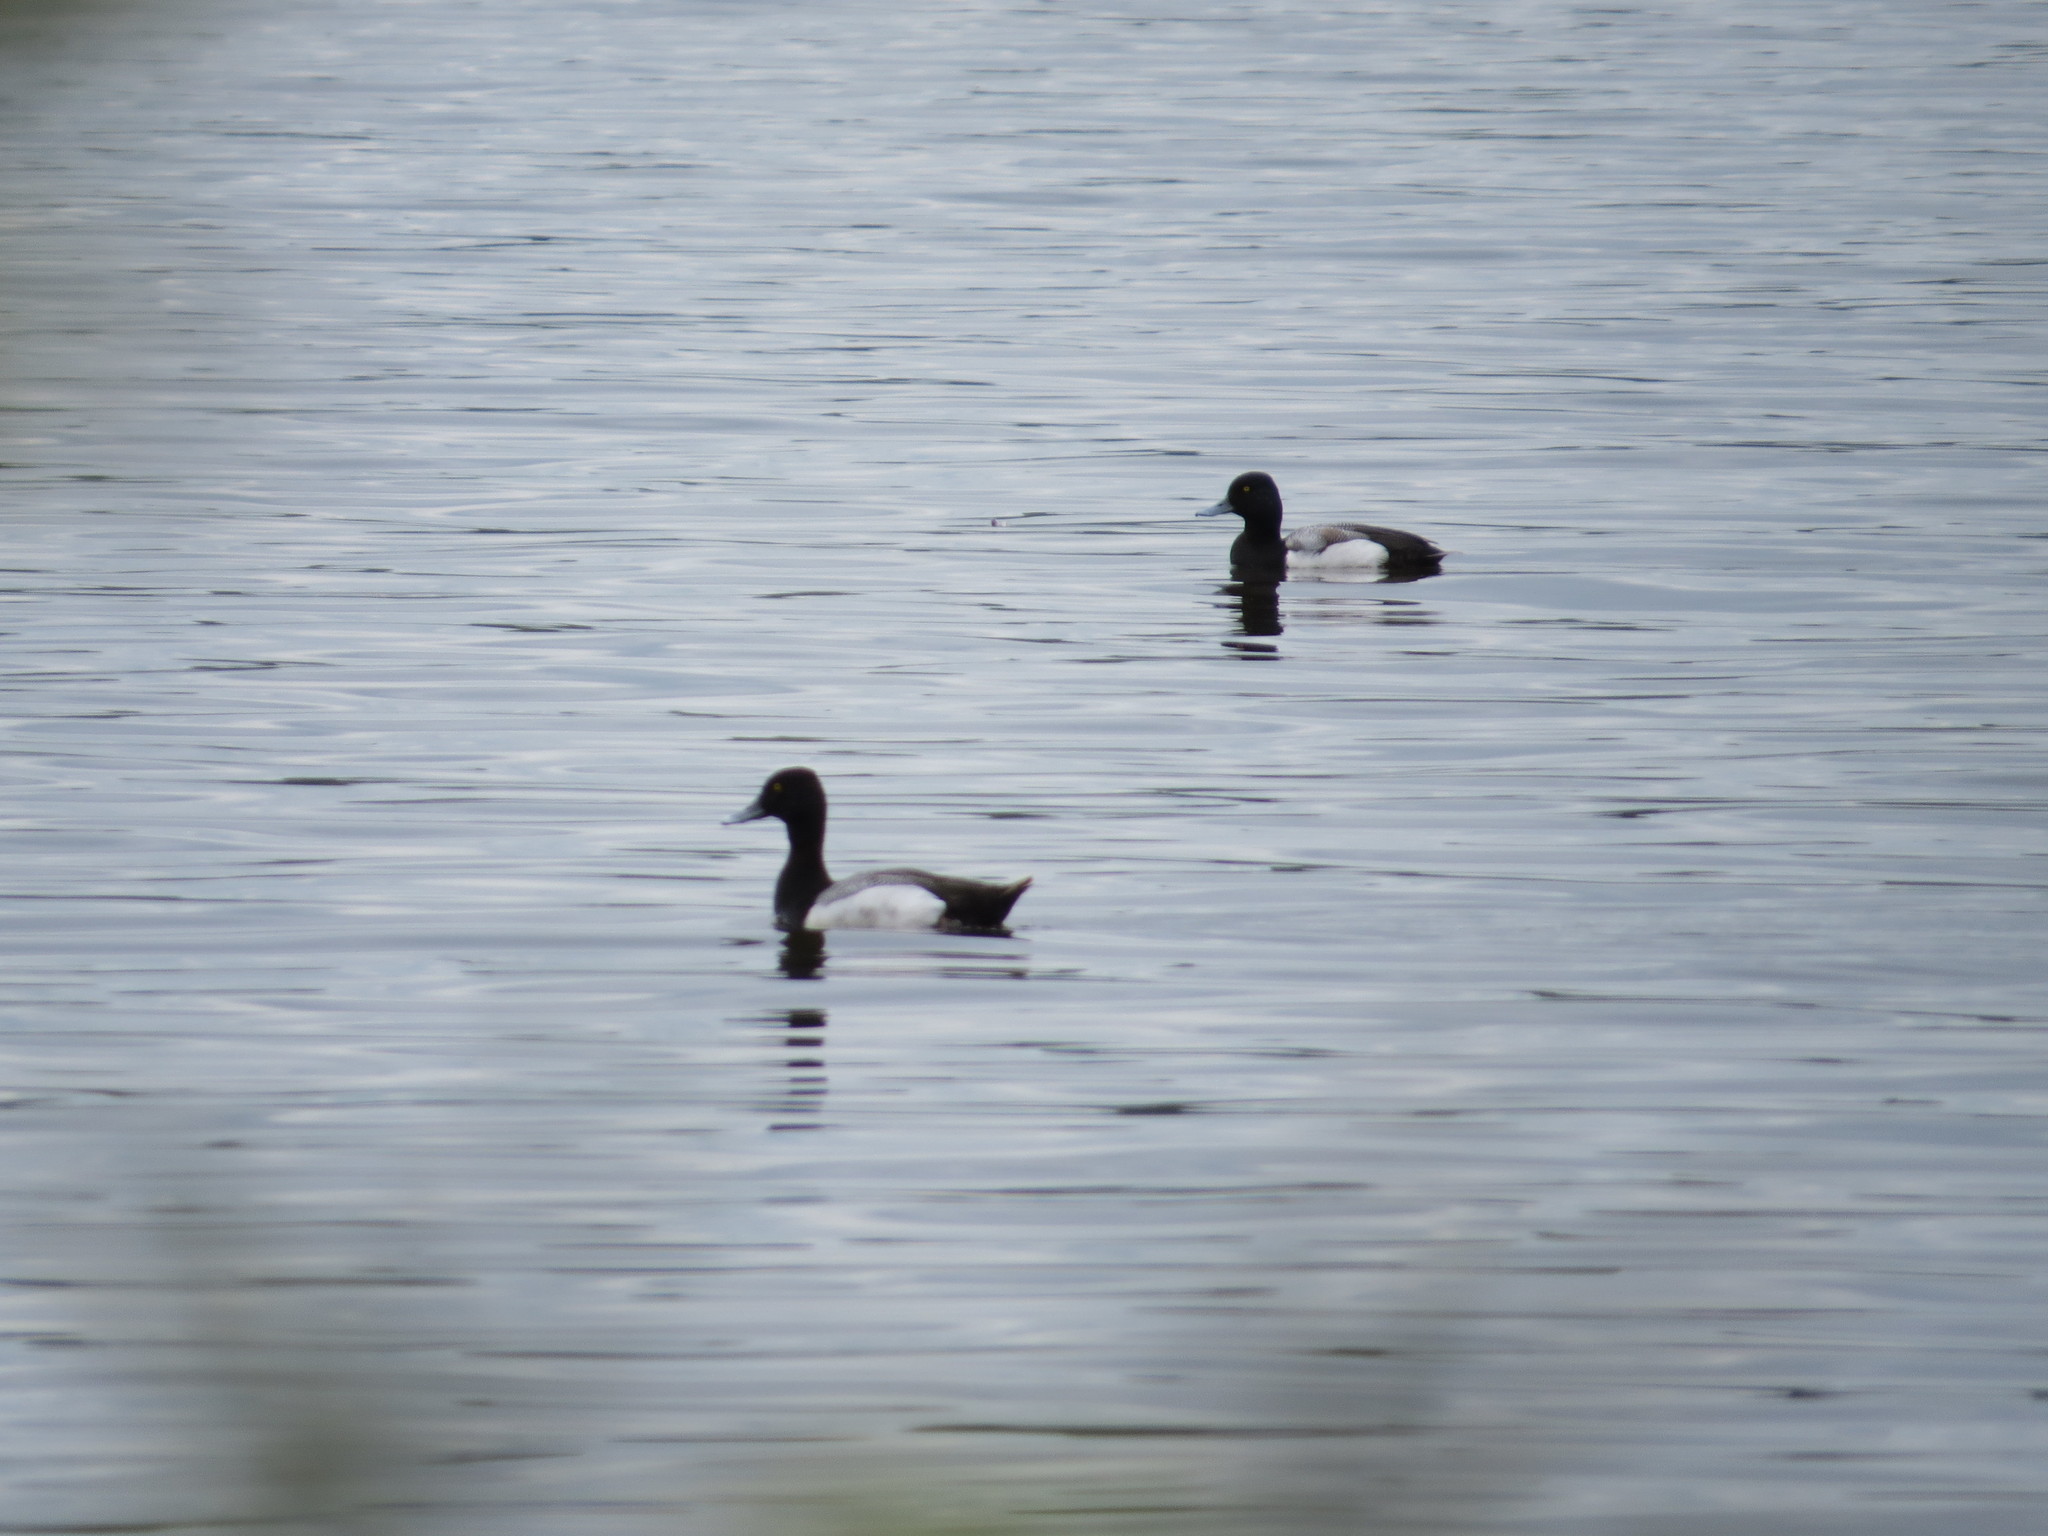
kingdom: Animalia
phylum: Chordata
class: Aves
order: Anseriformes
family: Anatidae
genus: Aythya
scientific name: Aythya affinis
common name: Lesser scaup
